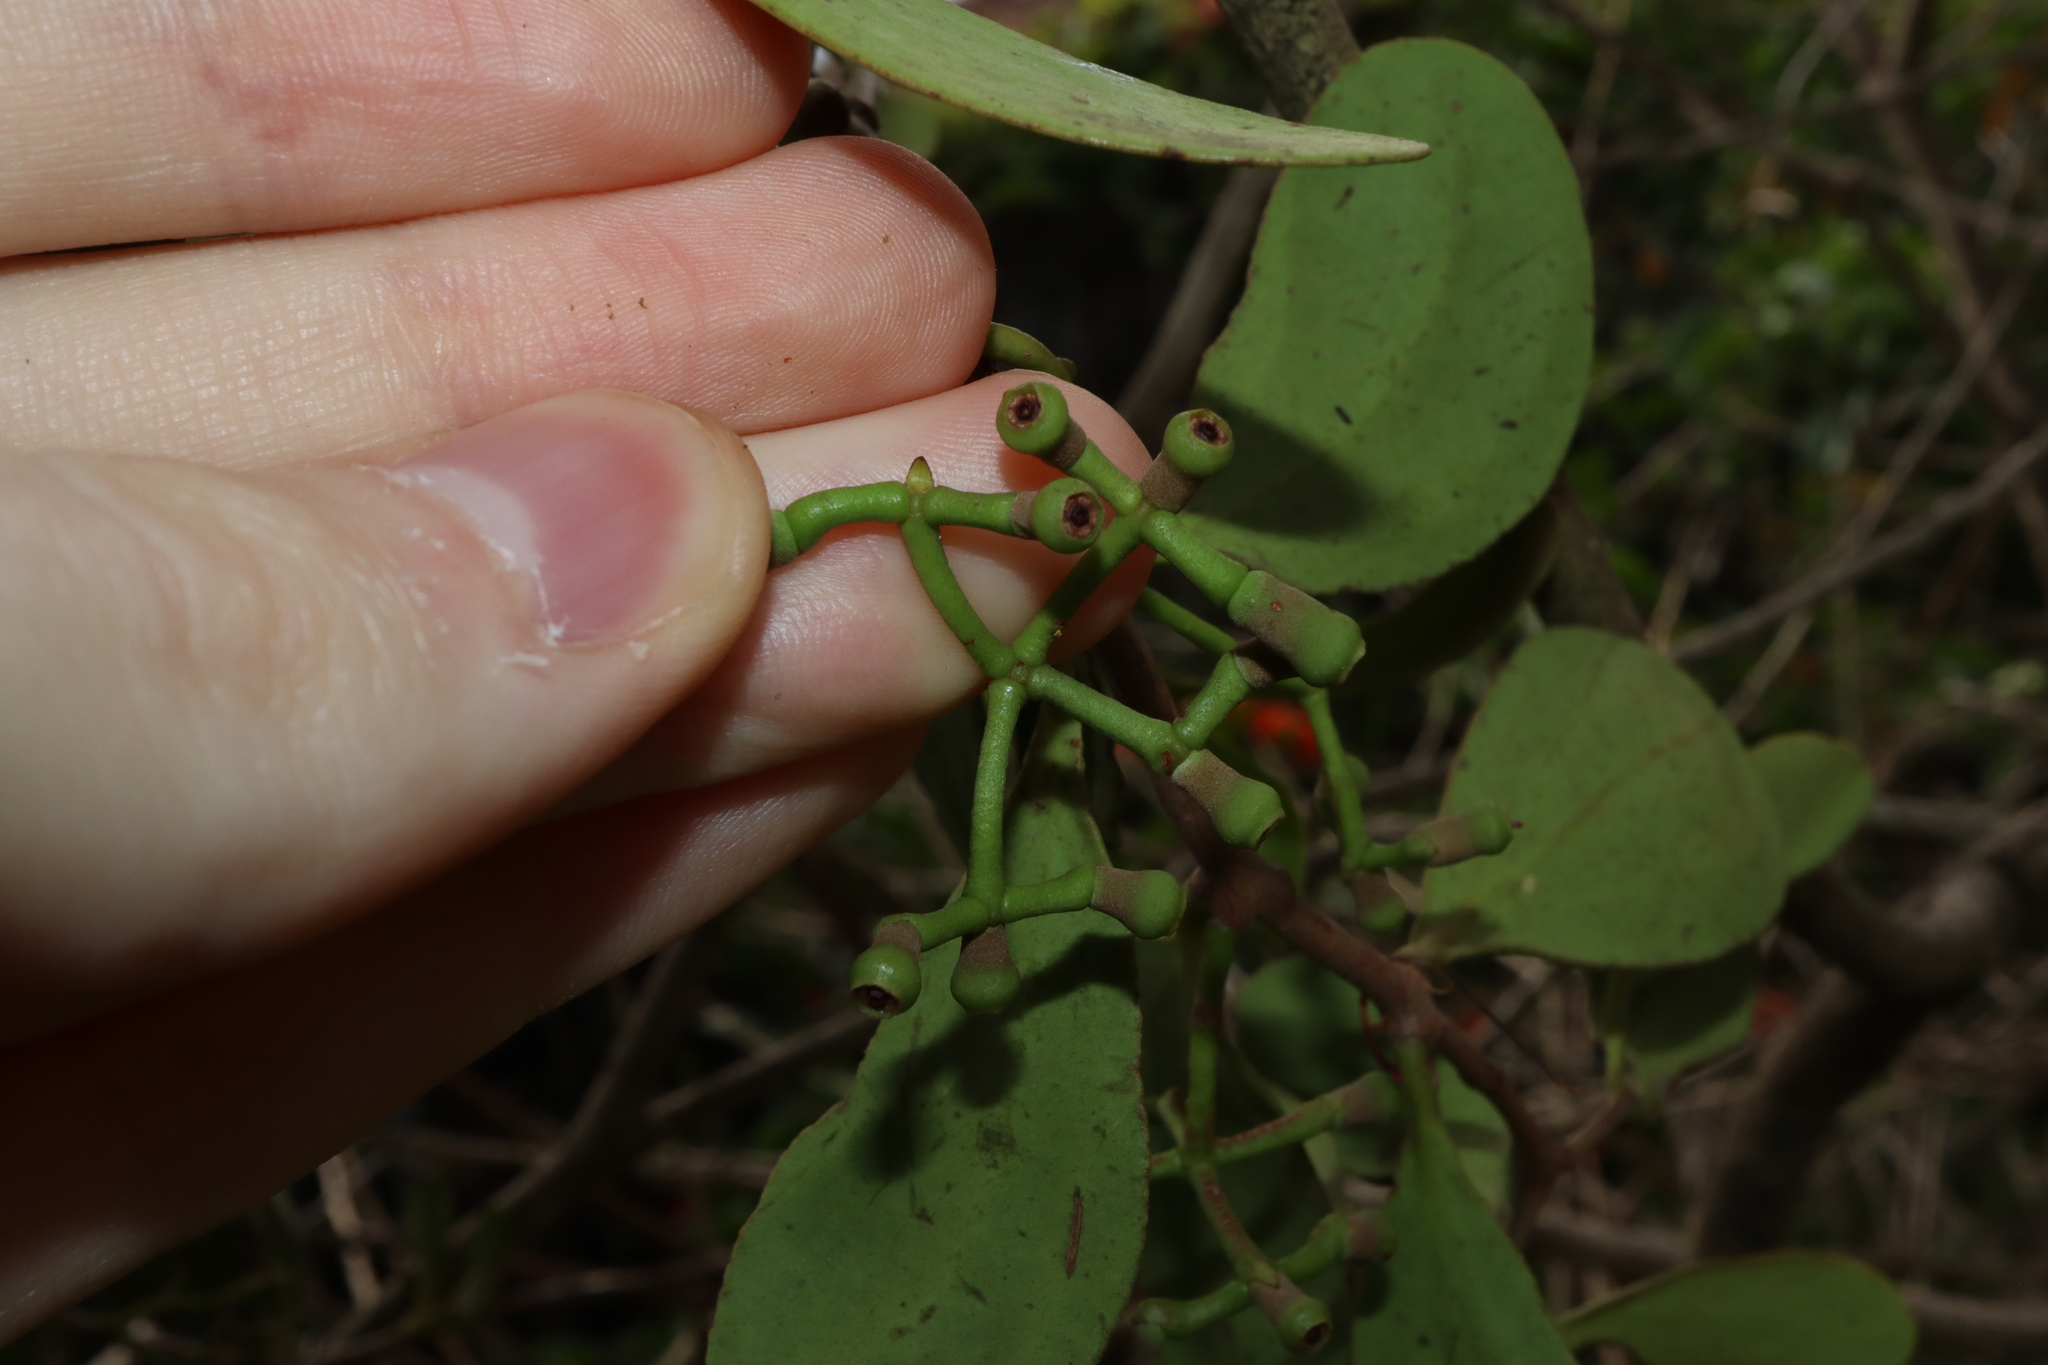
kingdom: Plantae
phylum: Tracheophyta
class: Magnoliopsida
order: Santalales
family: Loranthaceae
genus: Amyema
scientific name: Amyema congener
